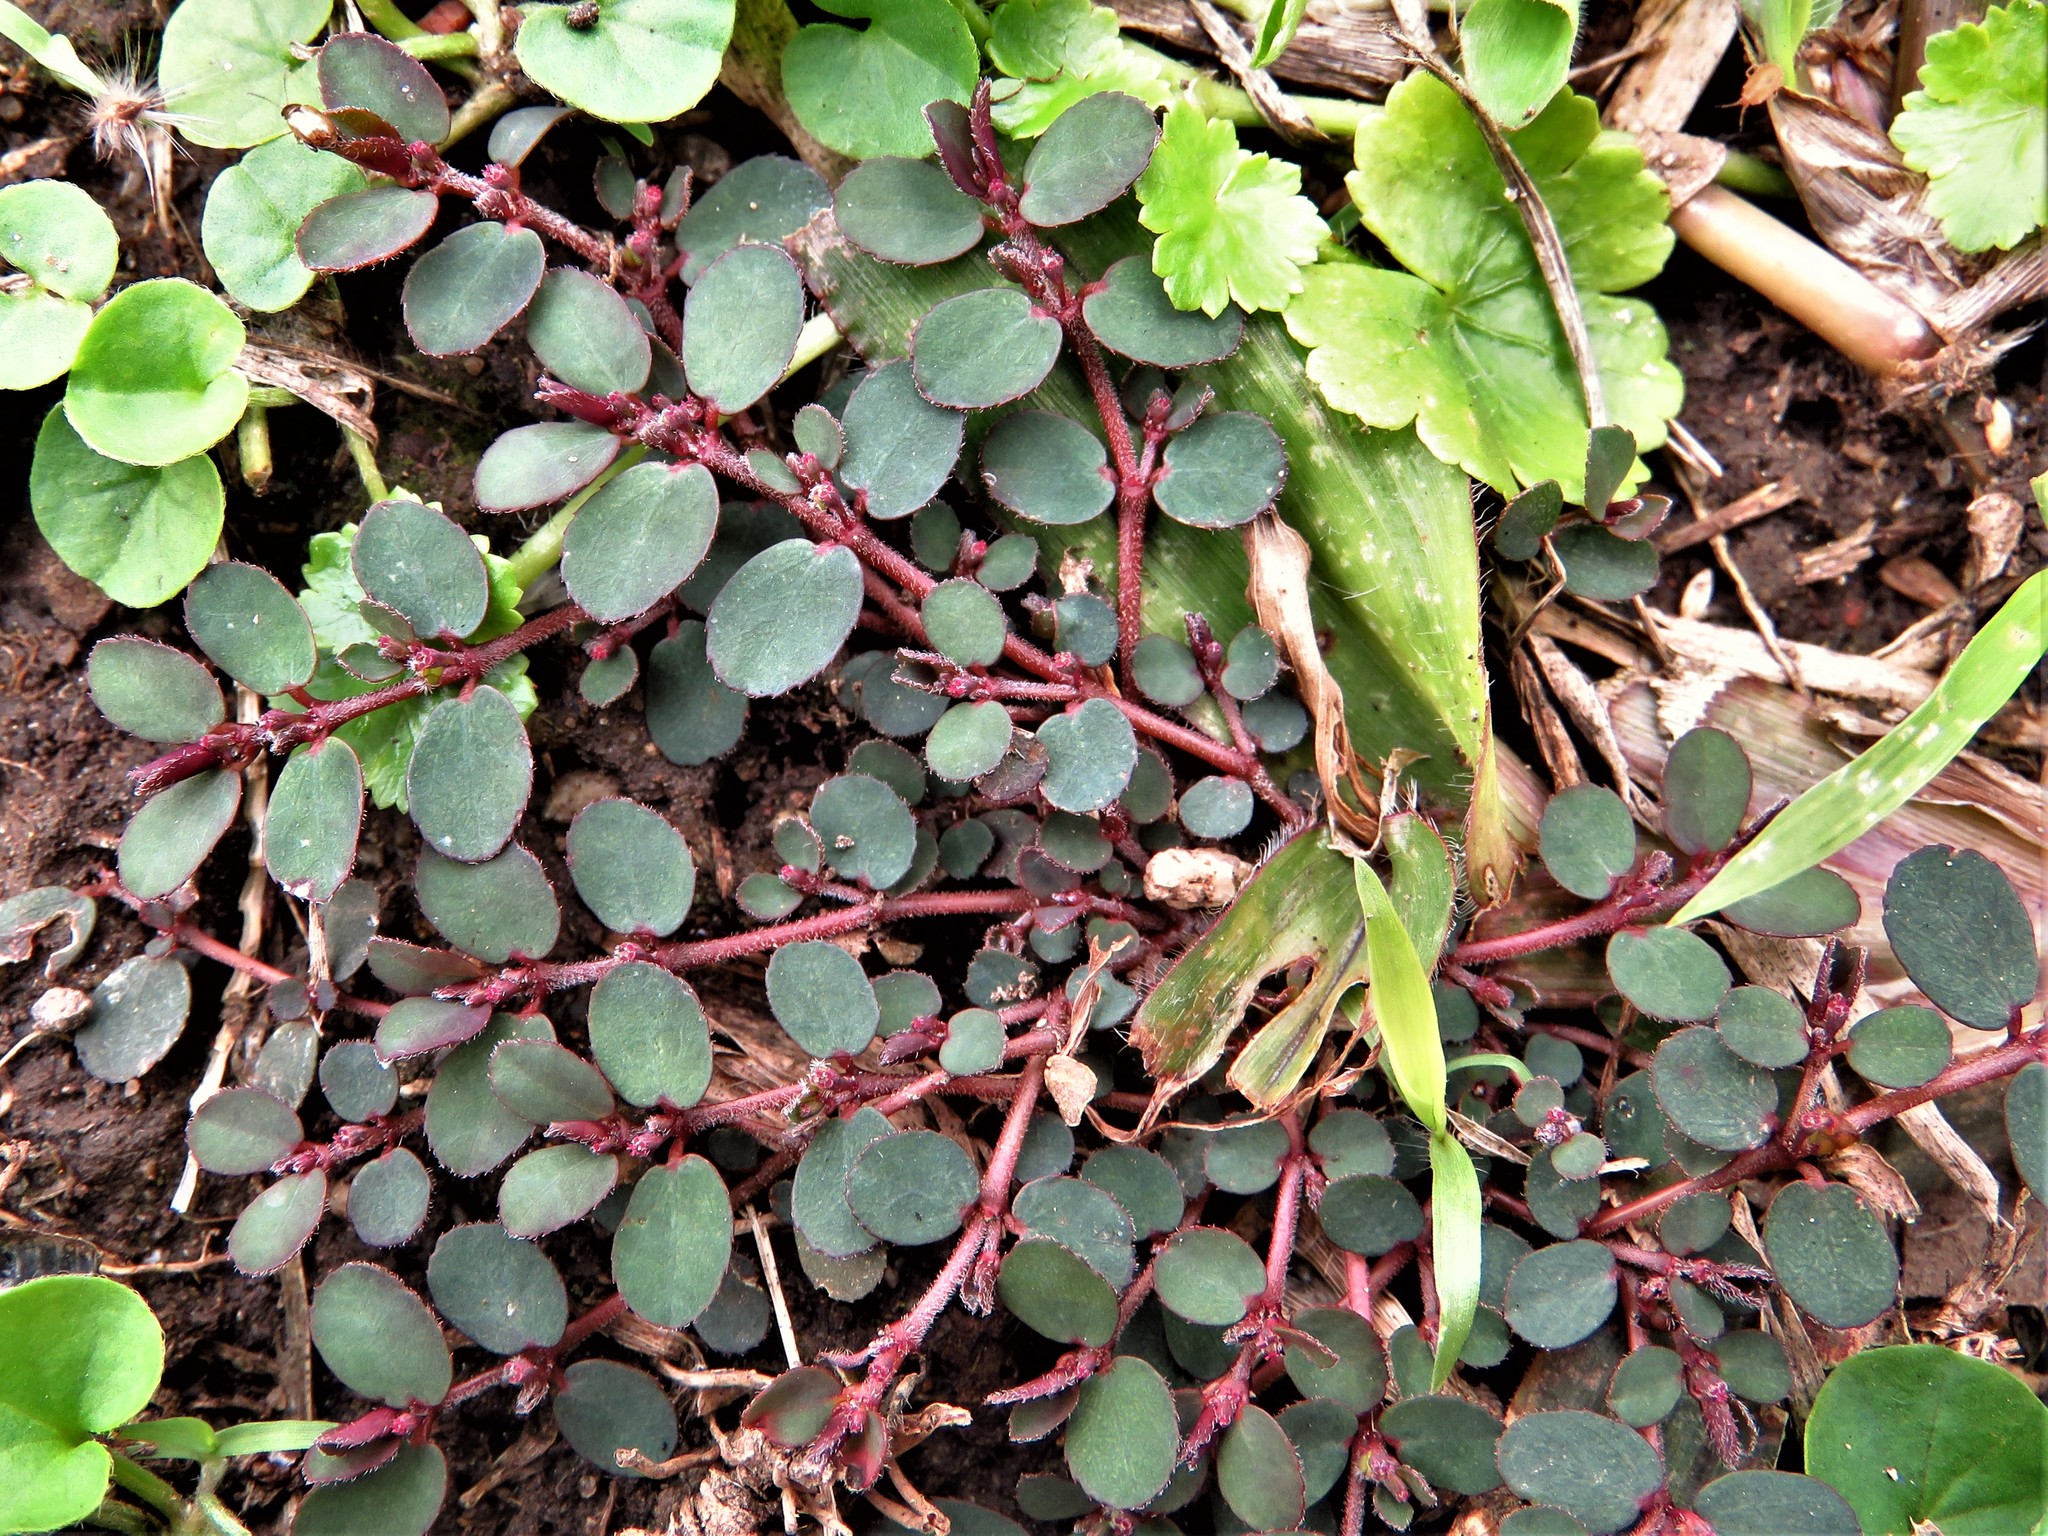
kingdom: Plantae
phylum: Tracheophyta
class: Magnoliopsida
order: Malpighiales
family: Euphorbiaceae
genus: Euphorbia
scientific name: Euphorbia prostrata
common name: Prostrate sandmat
